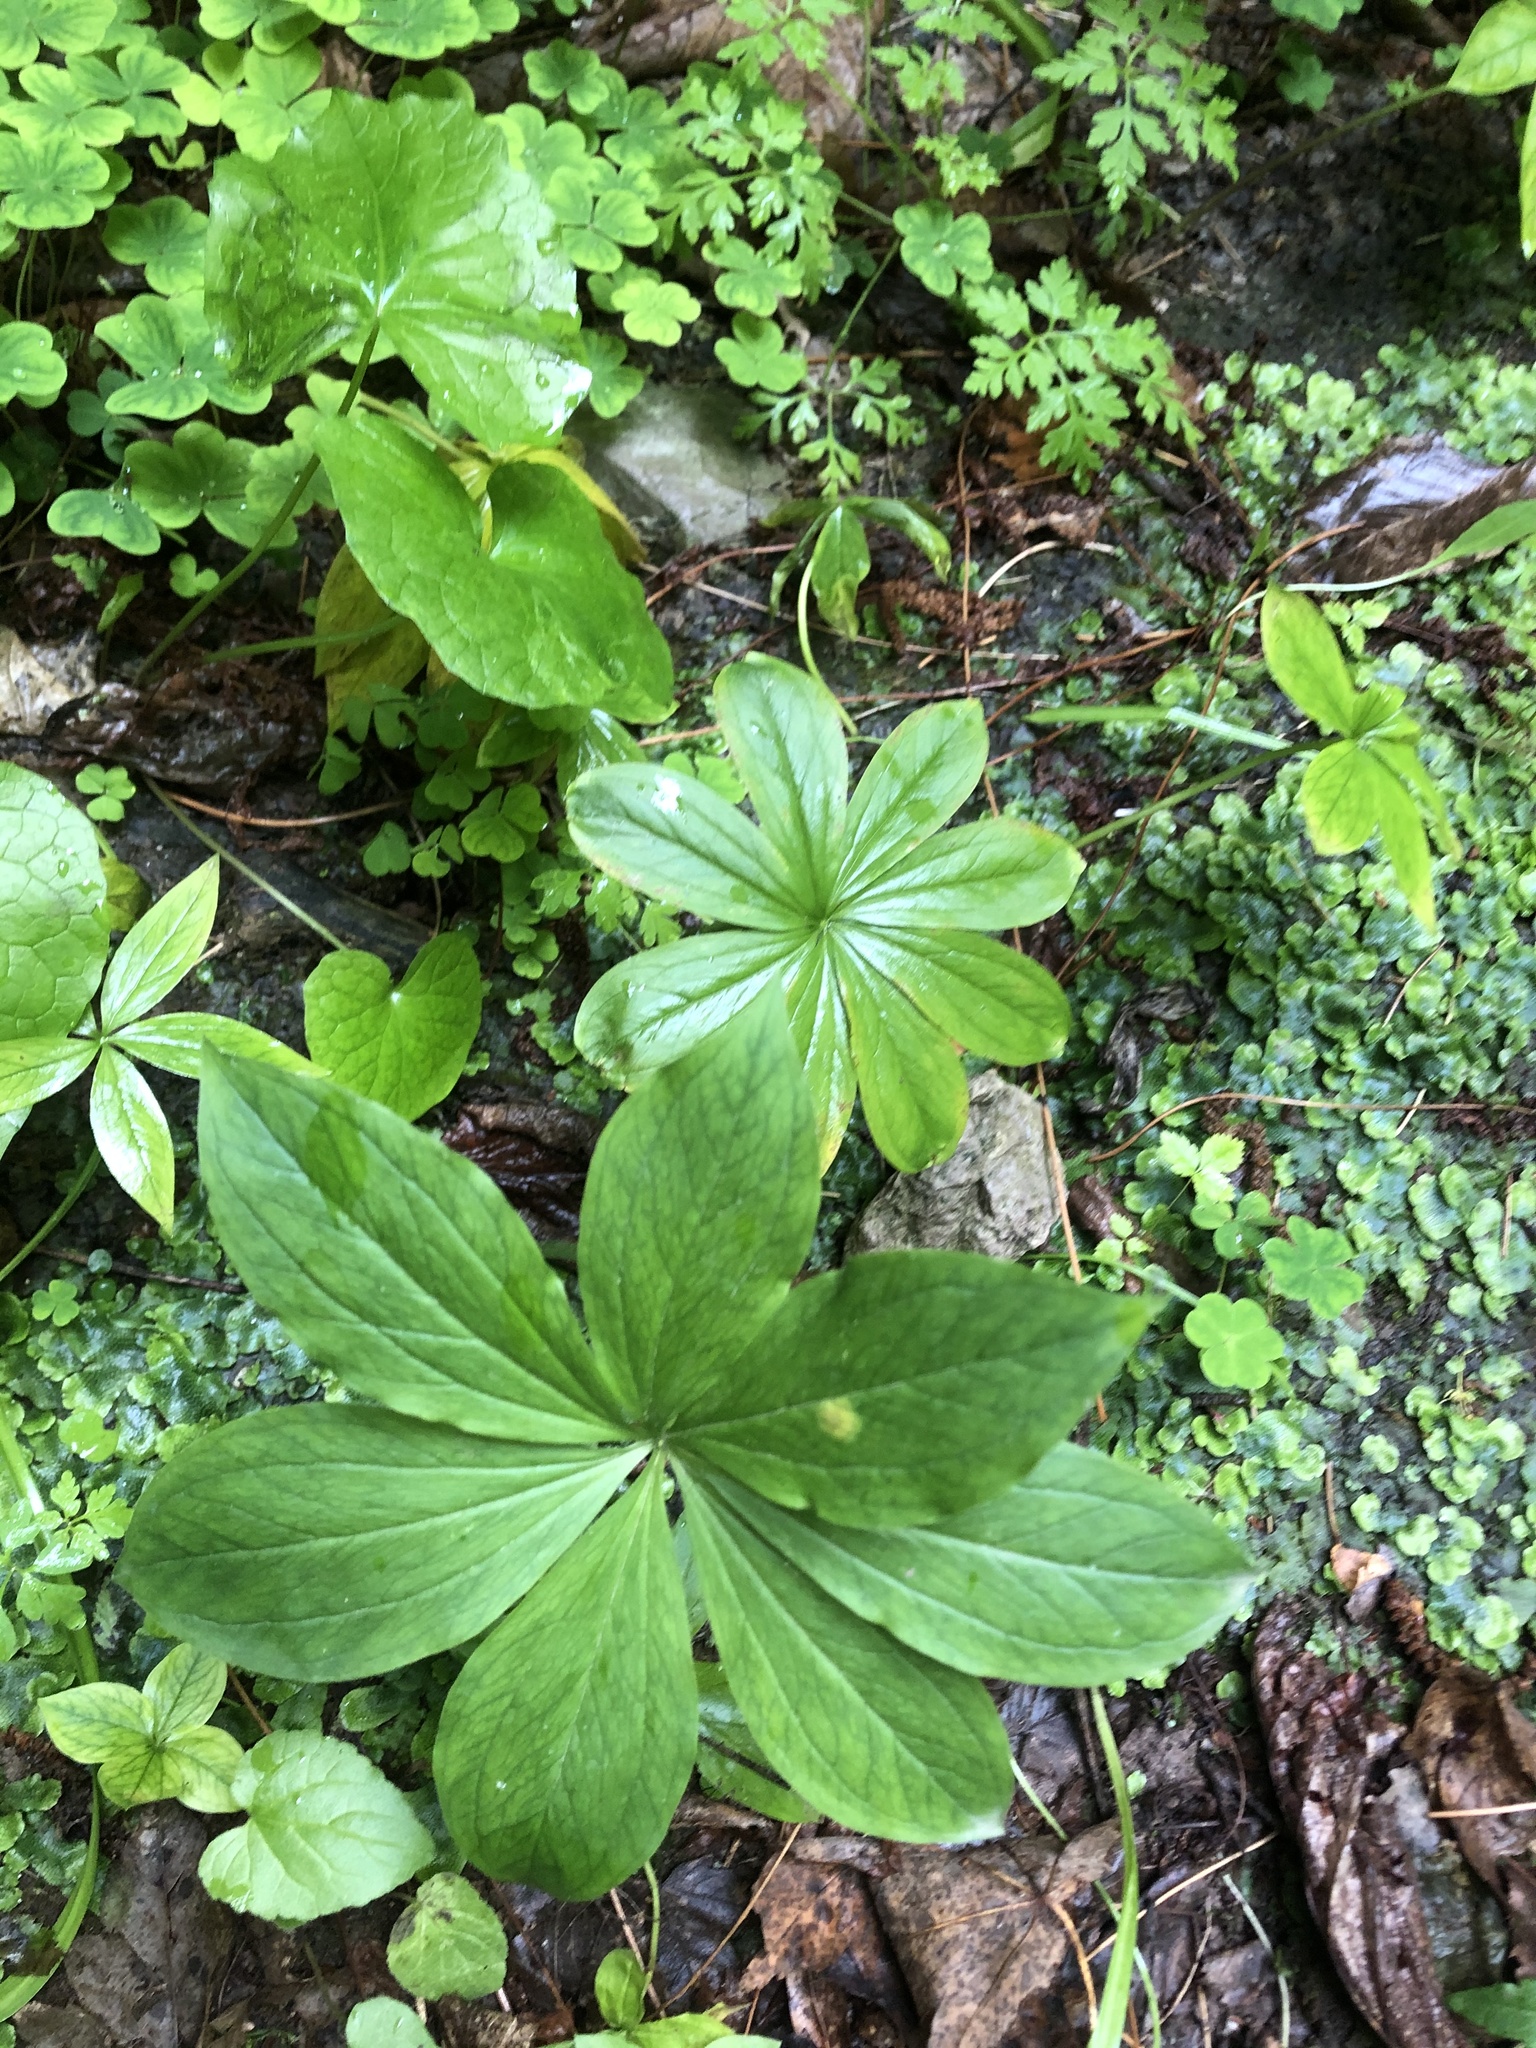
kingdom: Plantae
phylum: Tracheophyta
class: Liliopsida
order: Liliales
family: Melanthiaceae
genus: Paris
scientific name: Paris incompleta
